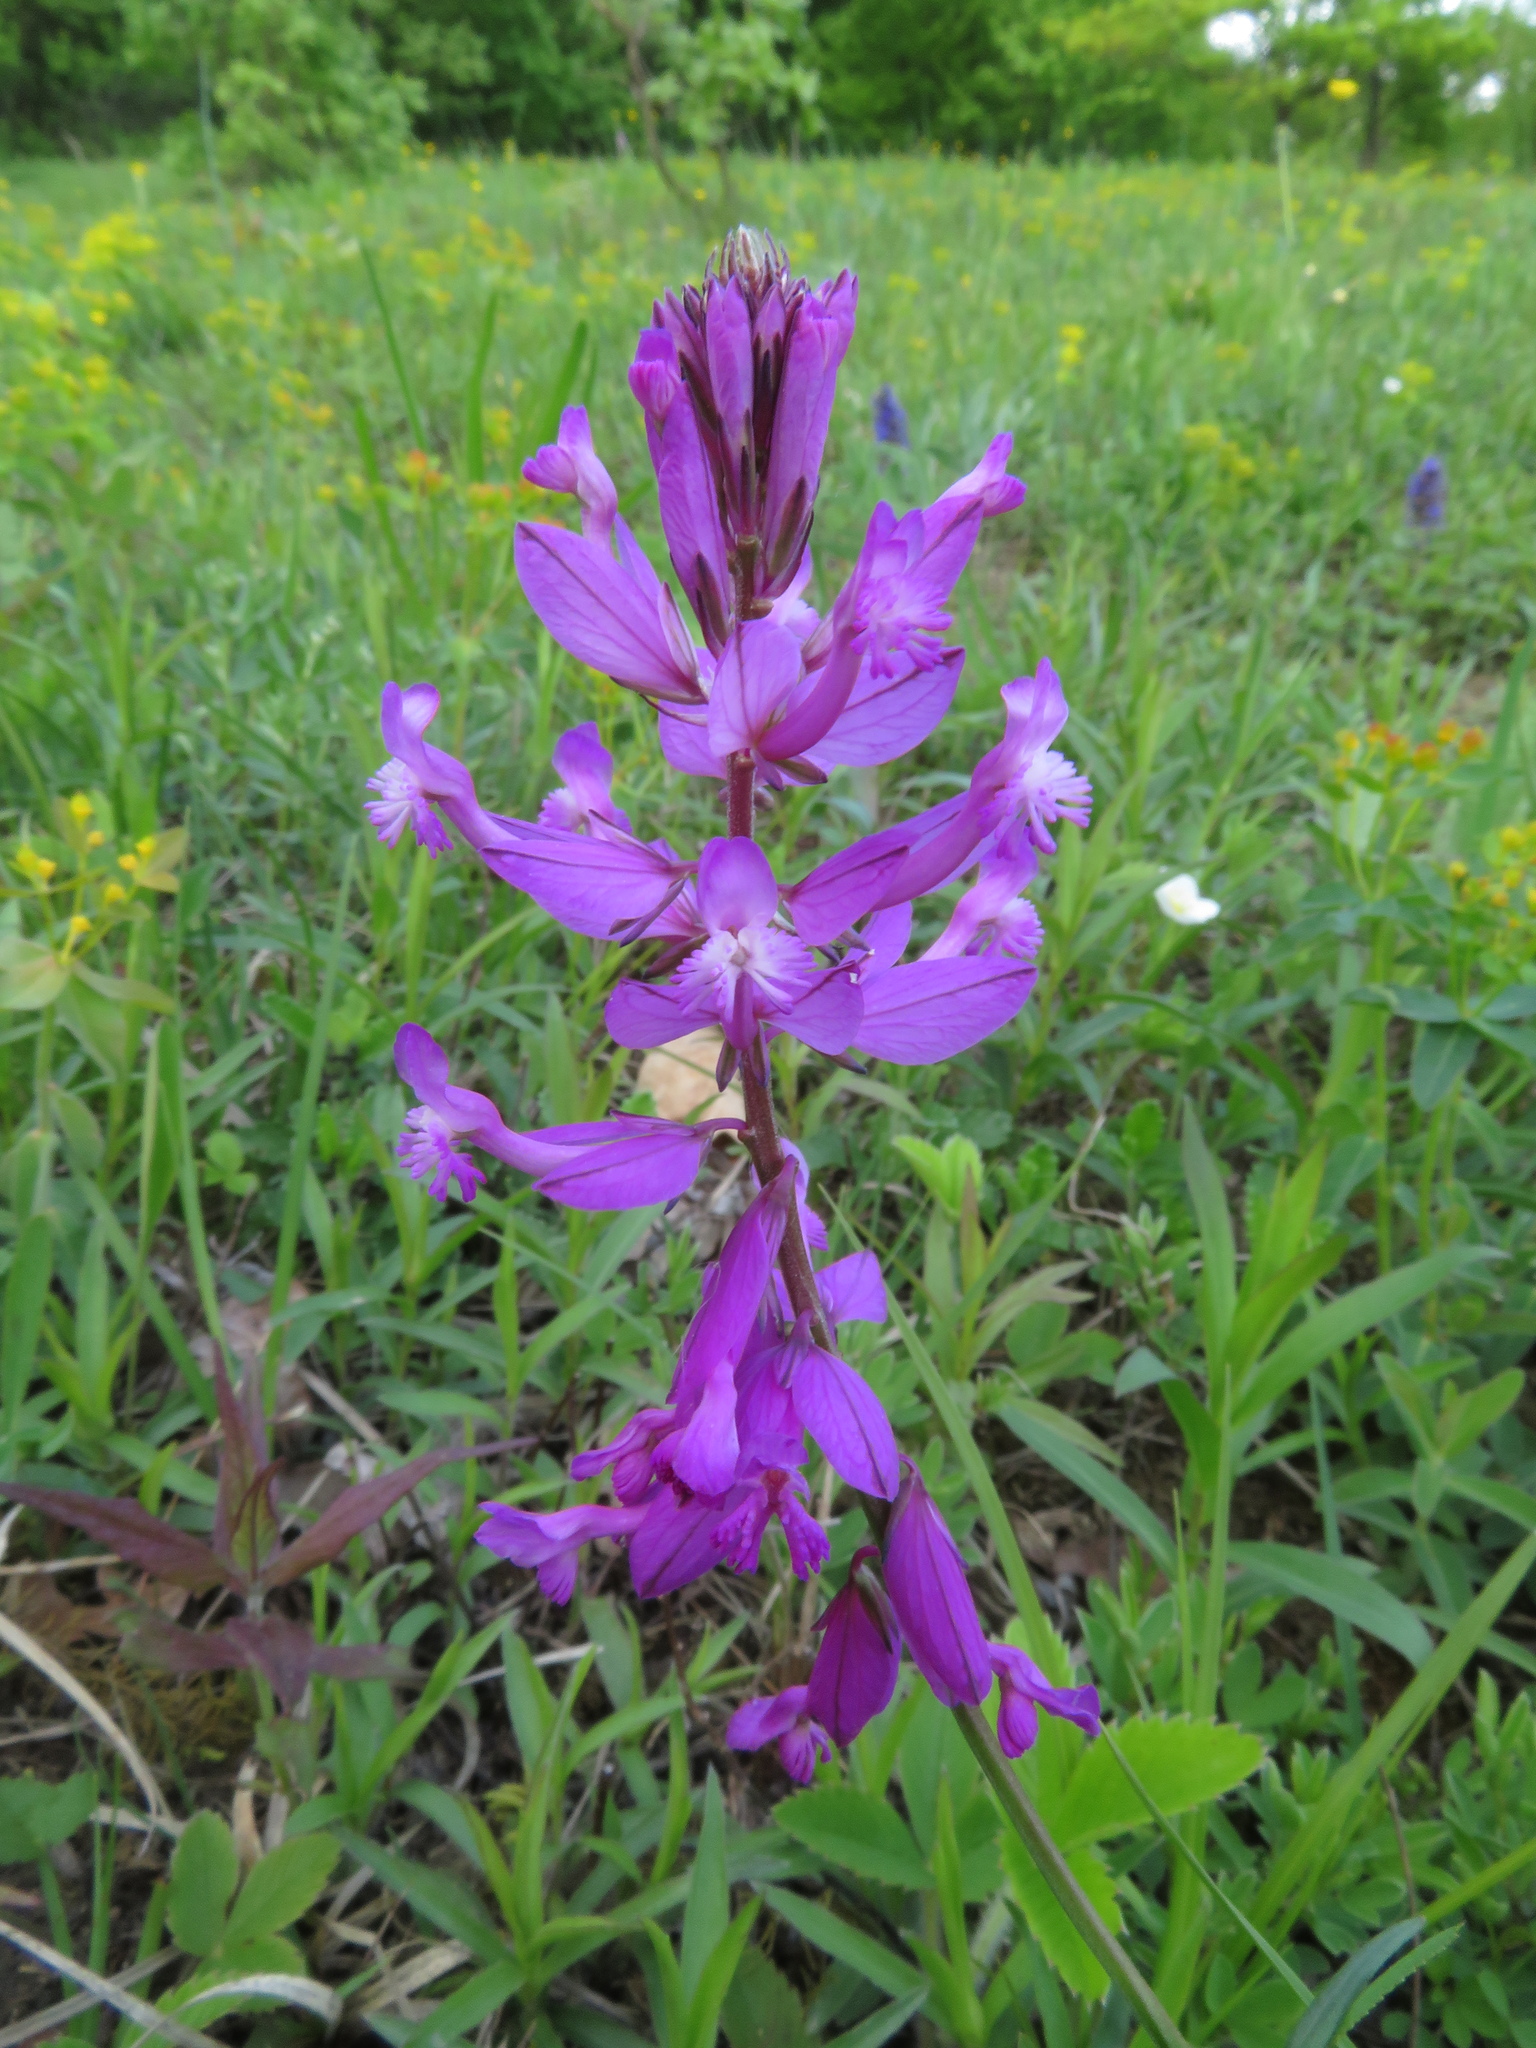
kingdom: Plantae
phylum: Tracheophyta
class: Magnoliopsida
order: Fabales
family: Polygalaceae
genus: Polygala
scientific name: Polygala major
